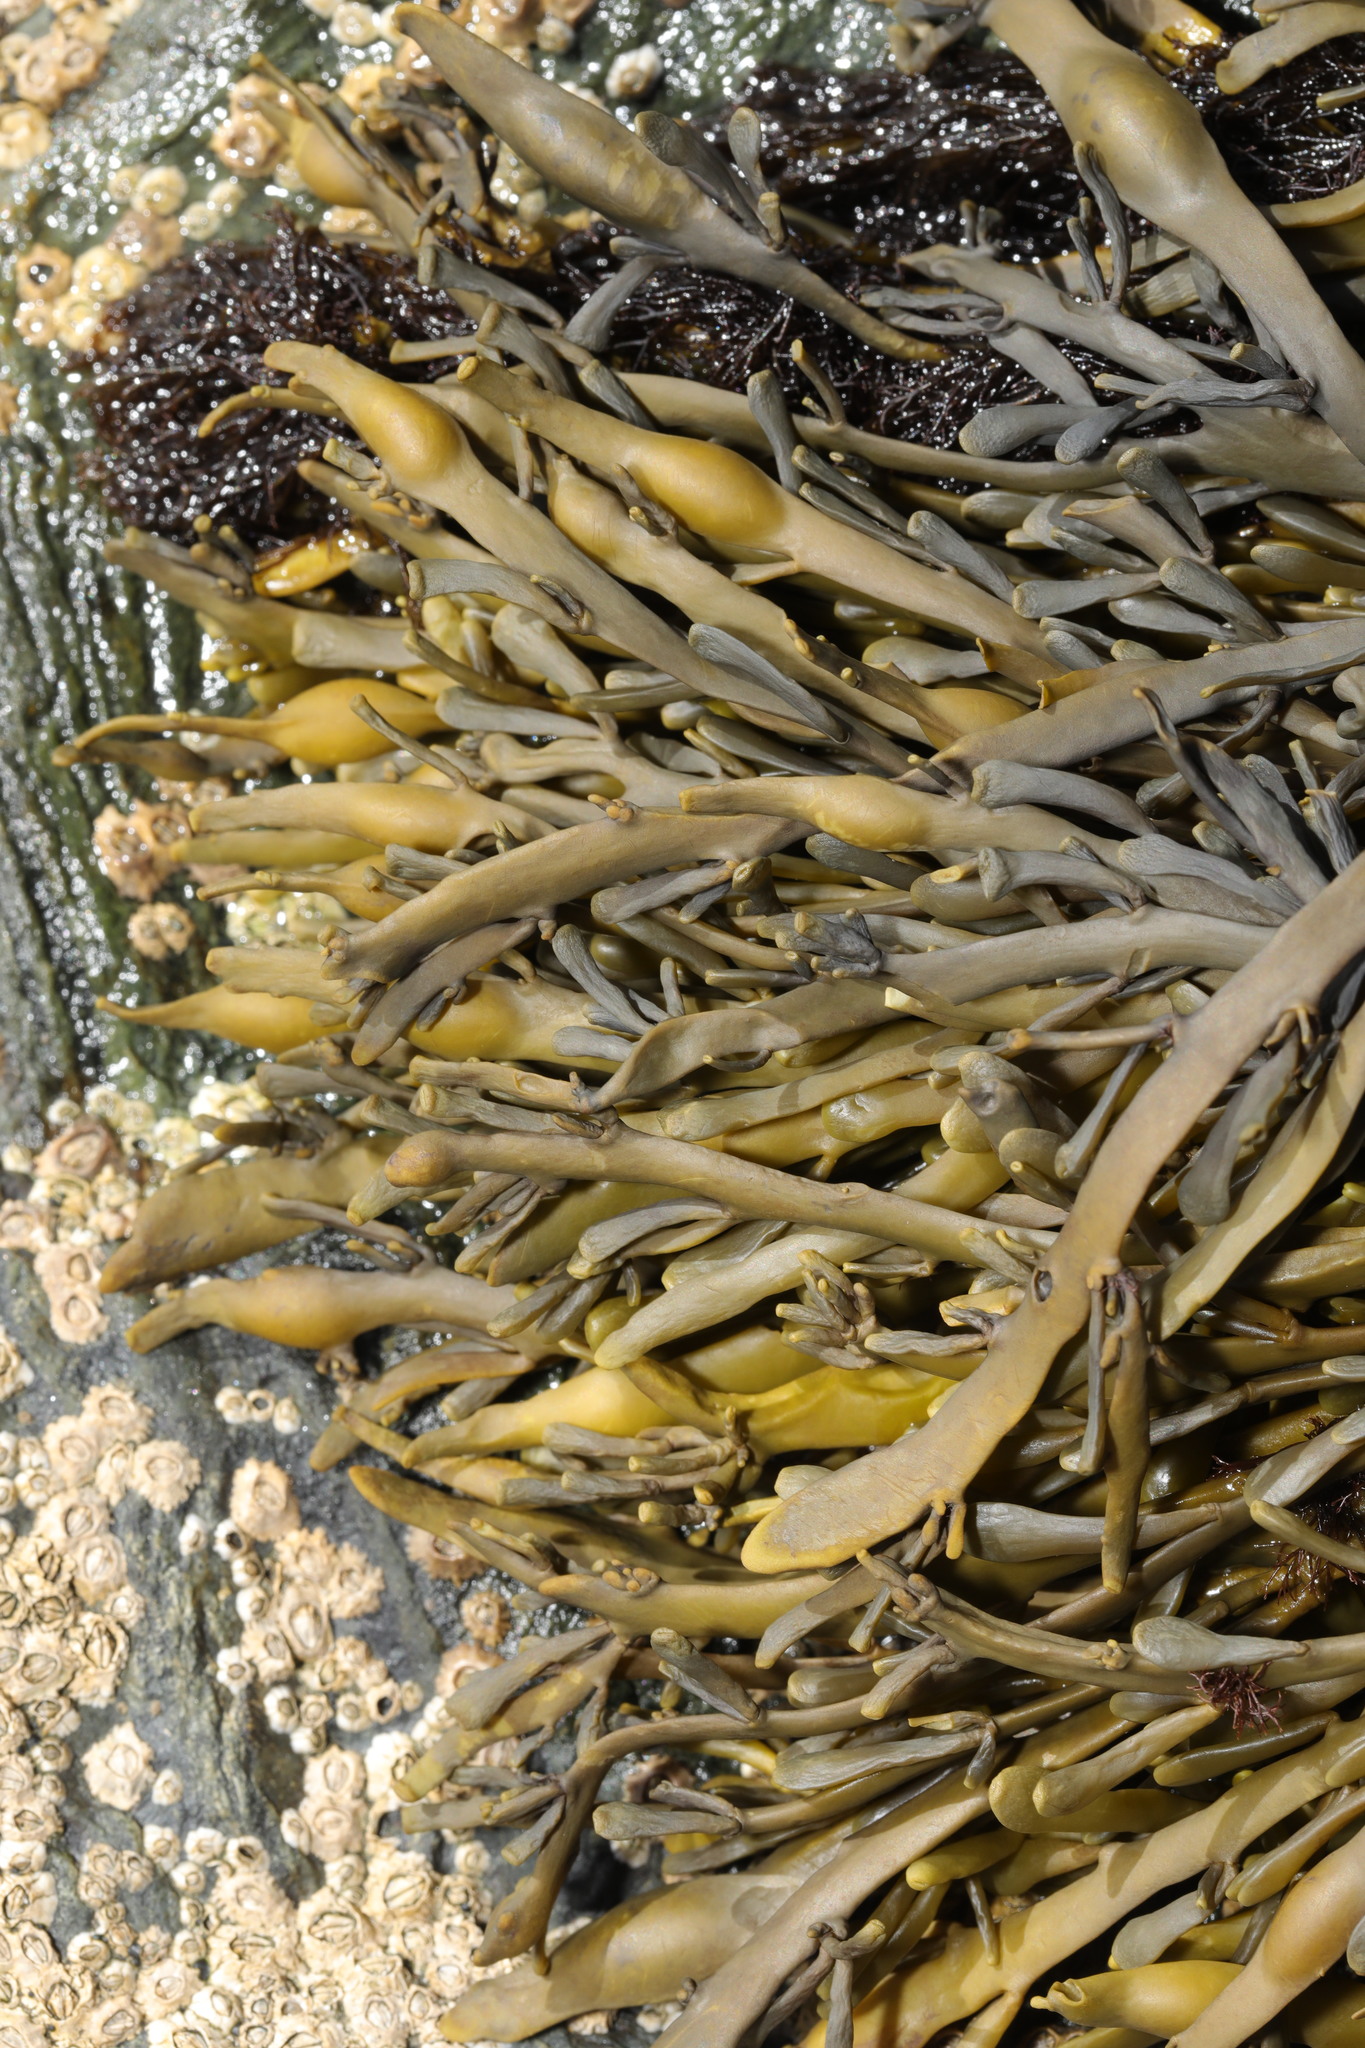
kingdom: Chromista
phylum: Ochrophyta
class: Phaeophyceae
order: Fucales
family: Fucaceae
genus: Ascophyllum
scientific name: Ascophyllum nodosum
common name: Knotted wrack
